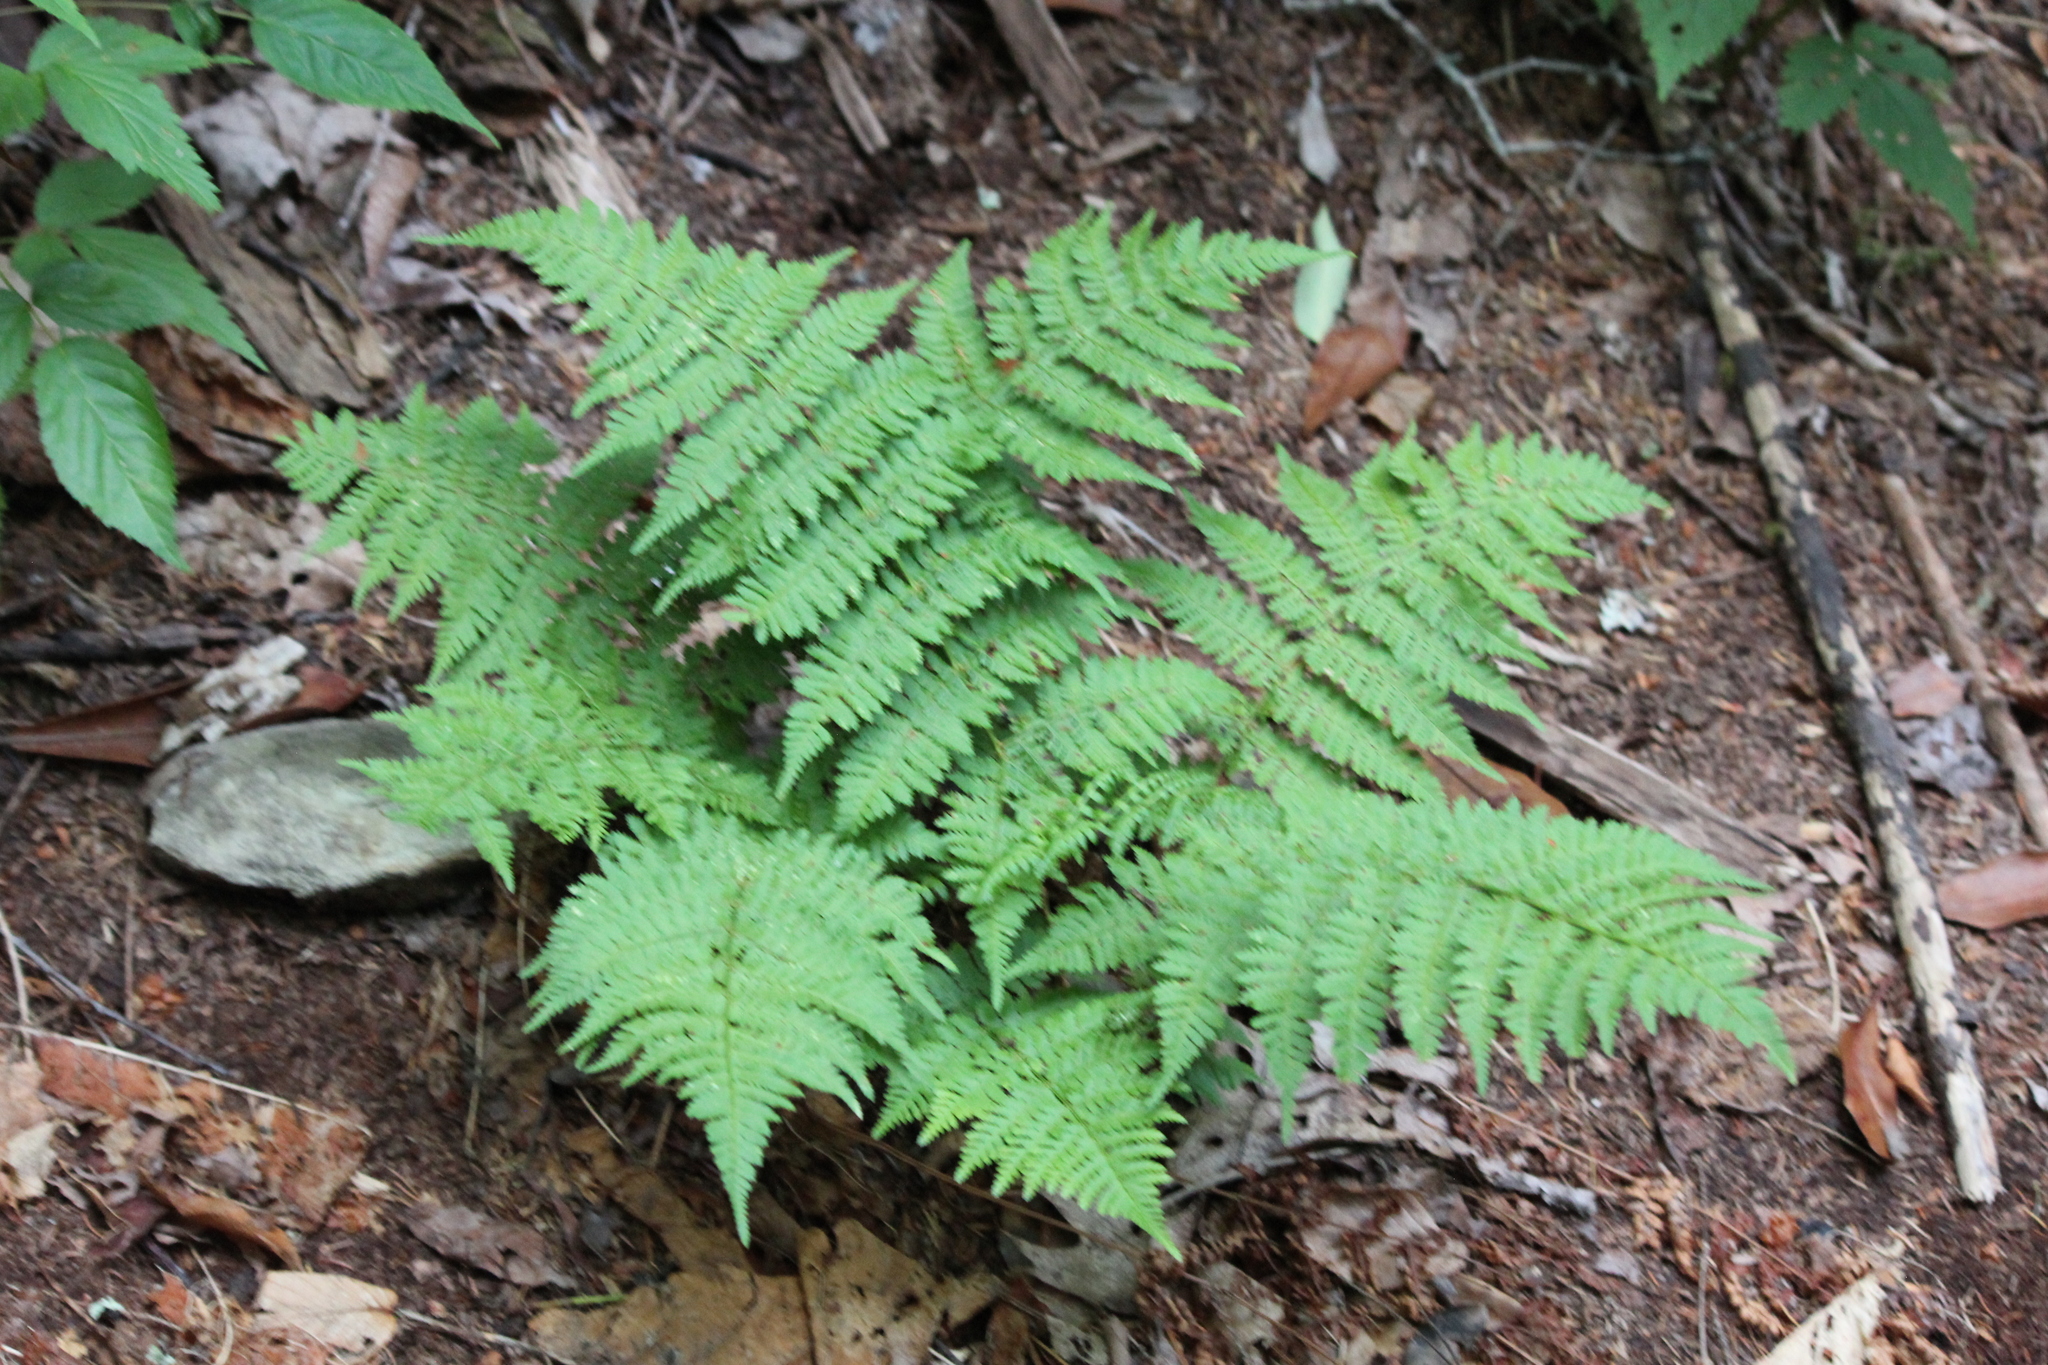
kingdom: Plantae
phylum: Tracheophyta
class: Polypodiopsida
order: Polypodiales
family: Dryopteridaceae
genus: Dryopteris
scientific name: Dryopteris intermedia
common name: Evergreen wood fern
